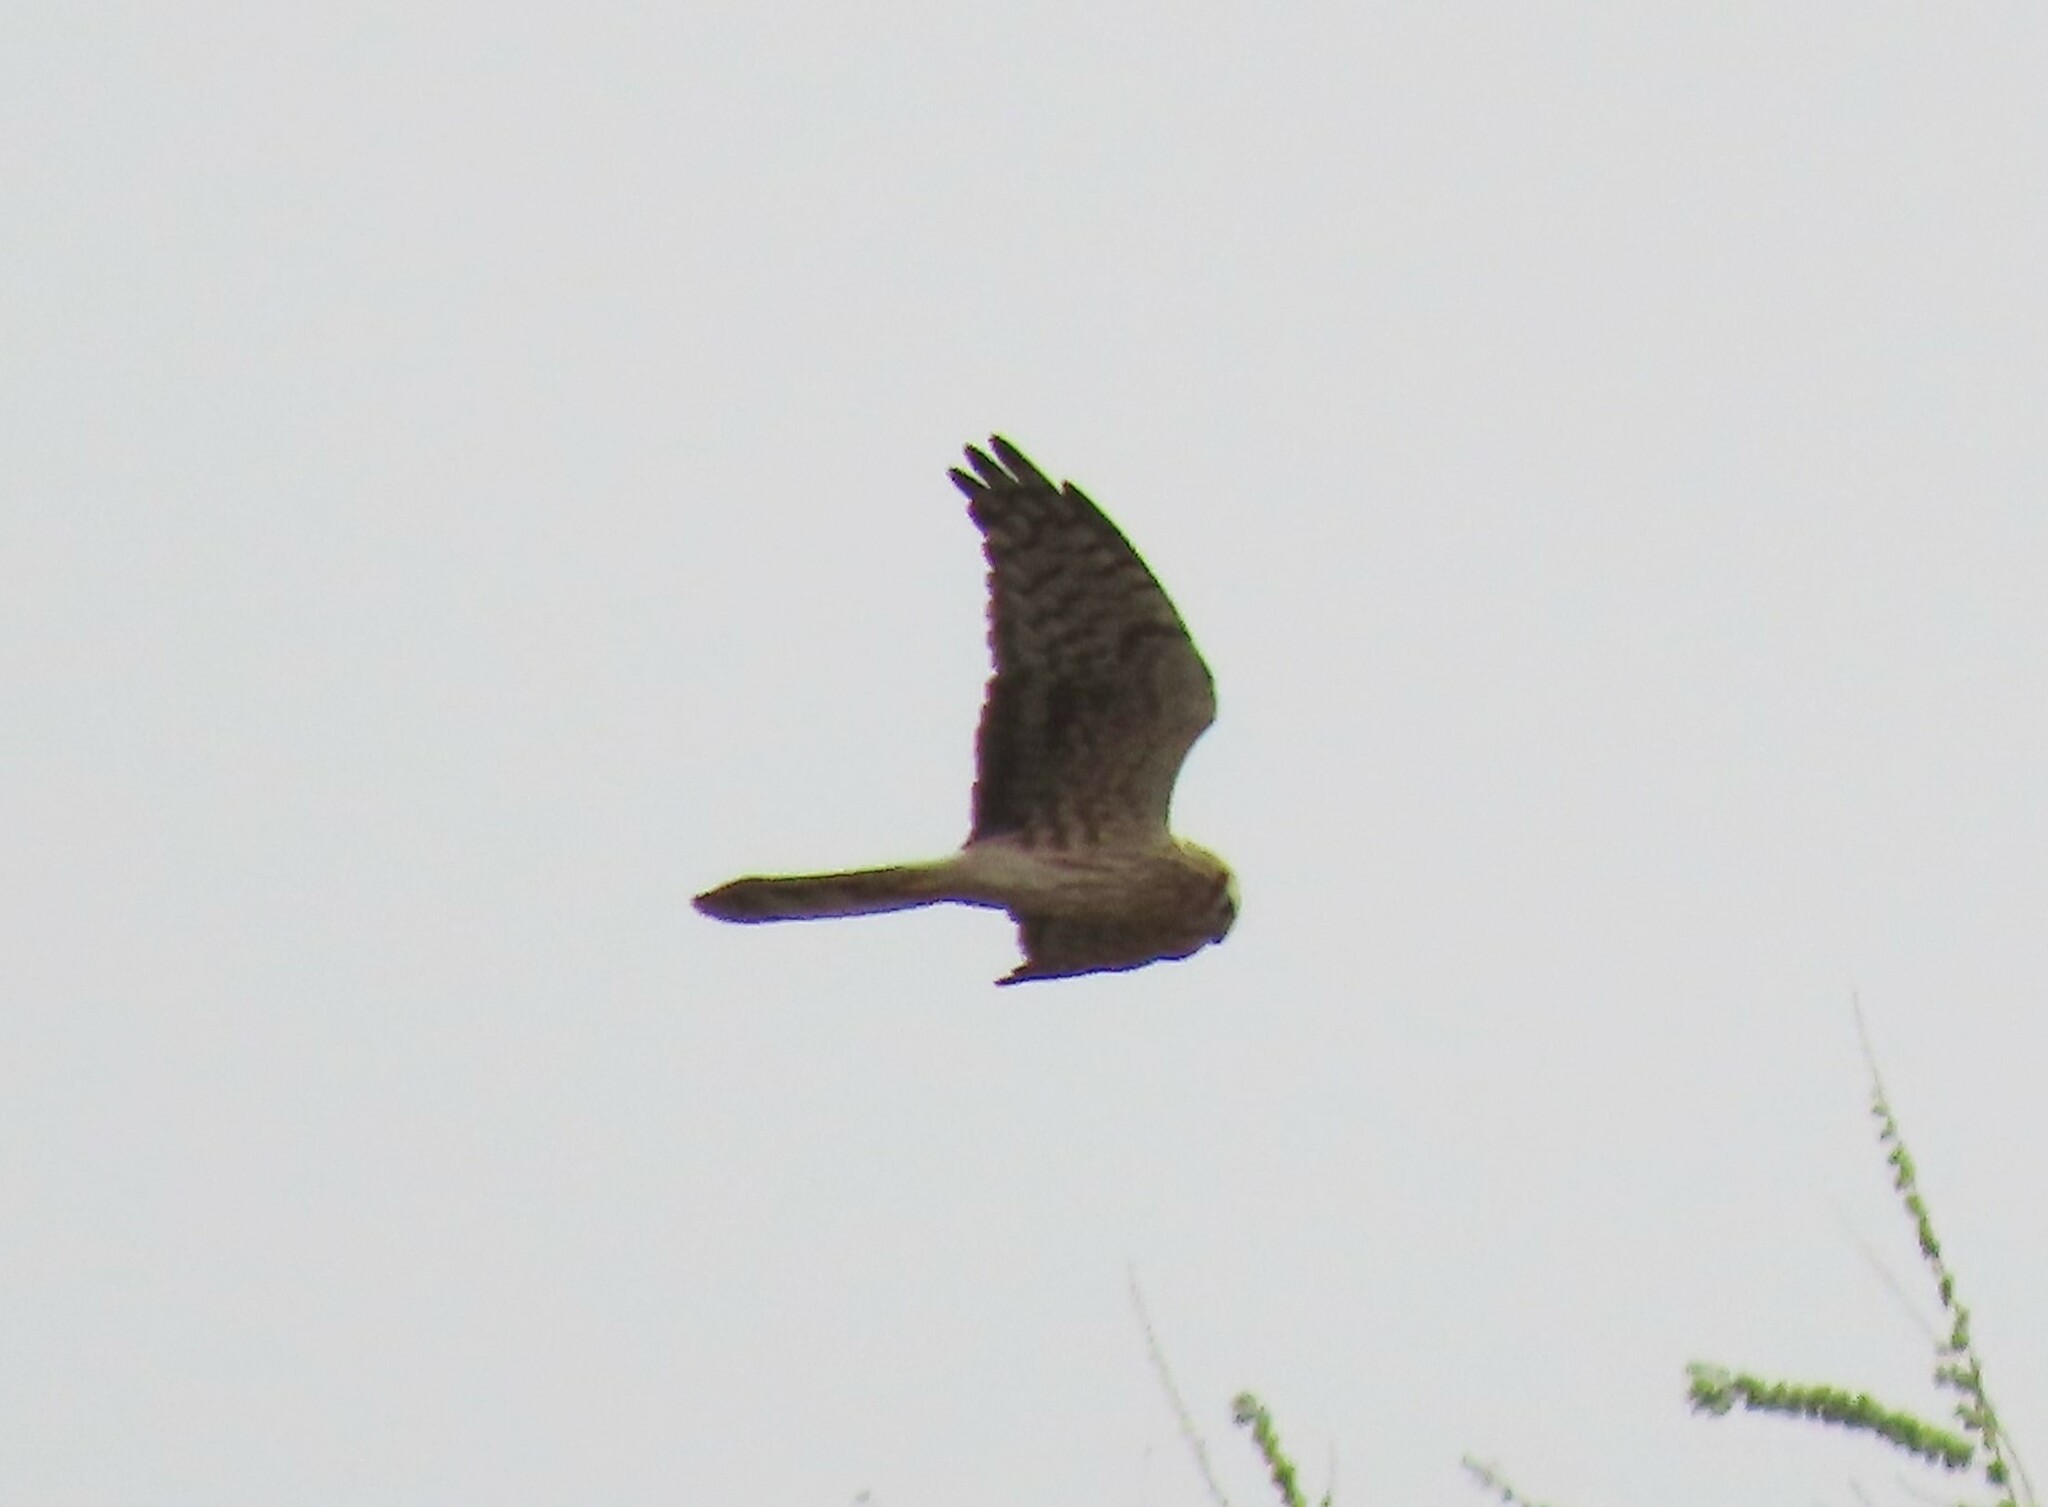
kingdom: Animalia
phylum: Chordata
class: Aves
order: Accipitriformes
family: Accipitridae
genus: Circus
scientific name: Circus pygargus
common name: Montagu's harrier
